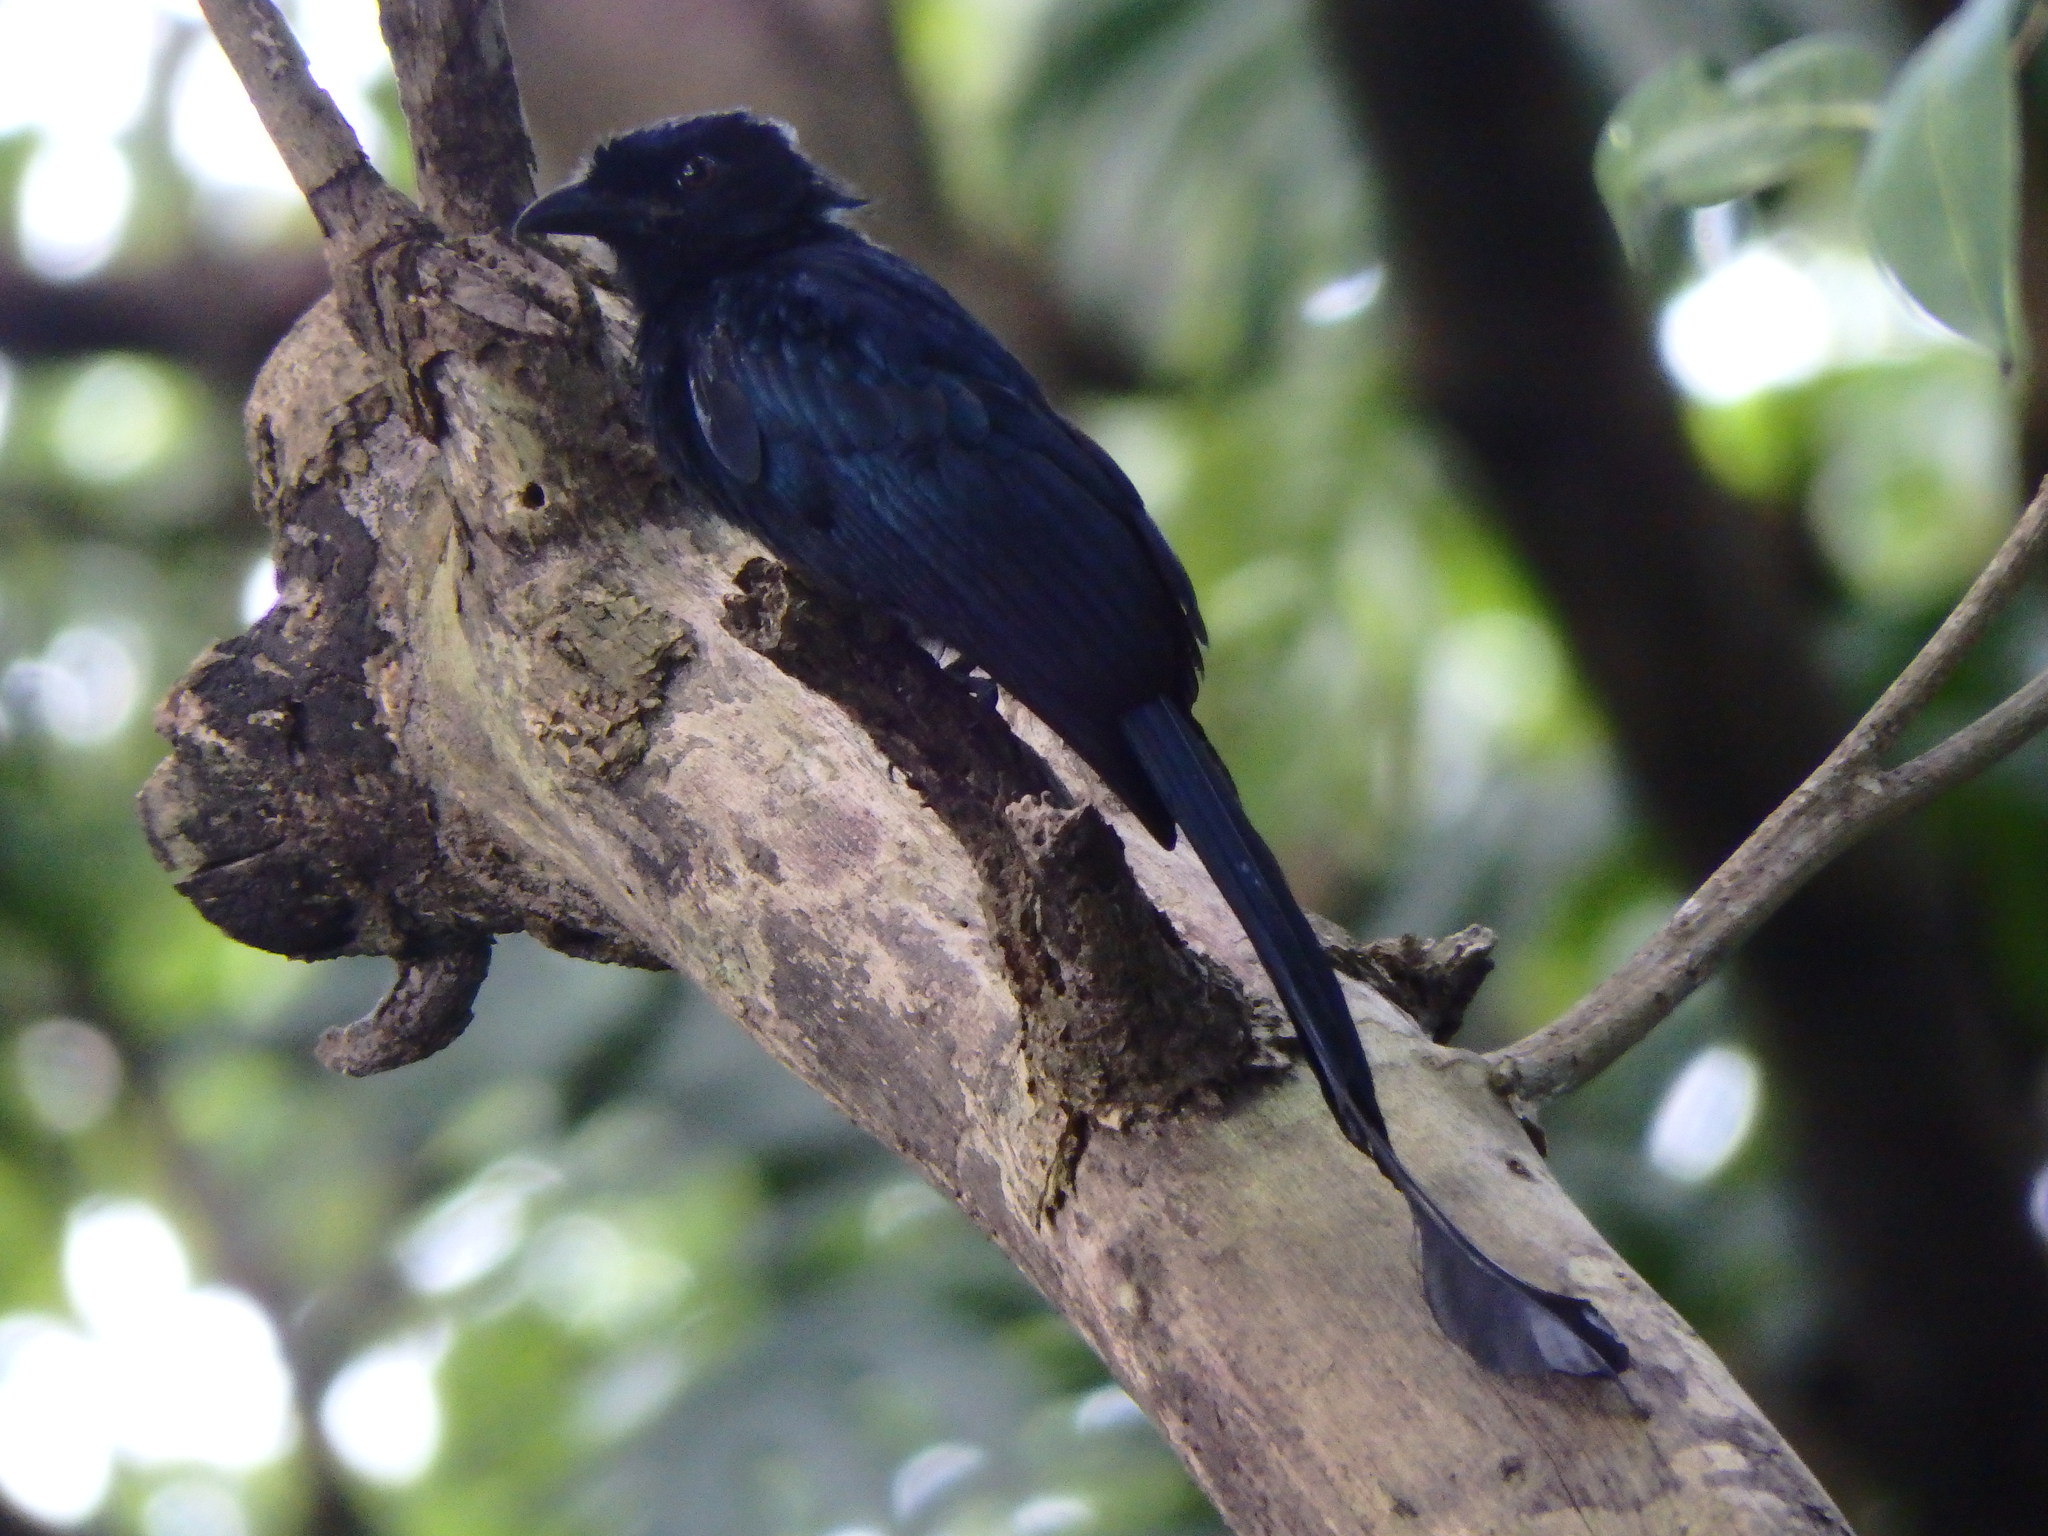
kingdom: Animalia
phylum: Chordata
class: Aves
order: Passeriformes
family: Dicruridae
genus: Dicrurus
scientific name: Dicrurus paradiseus
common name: Greater racket-tailed drongo
